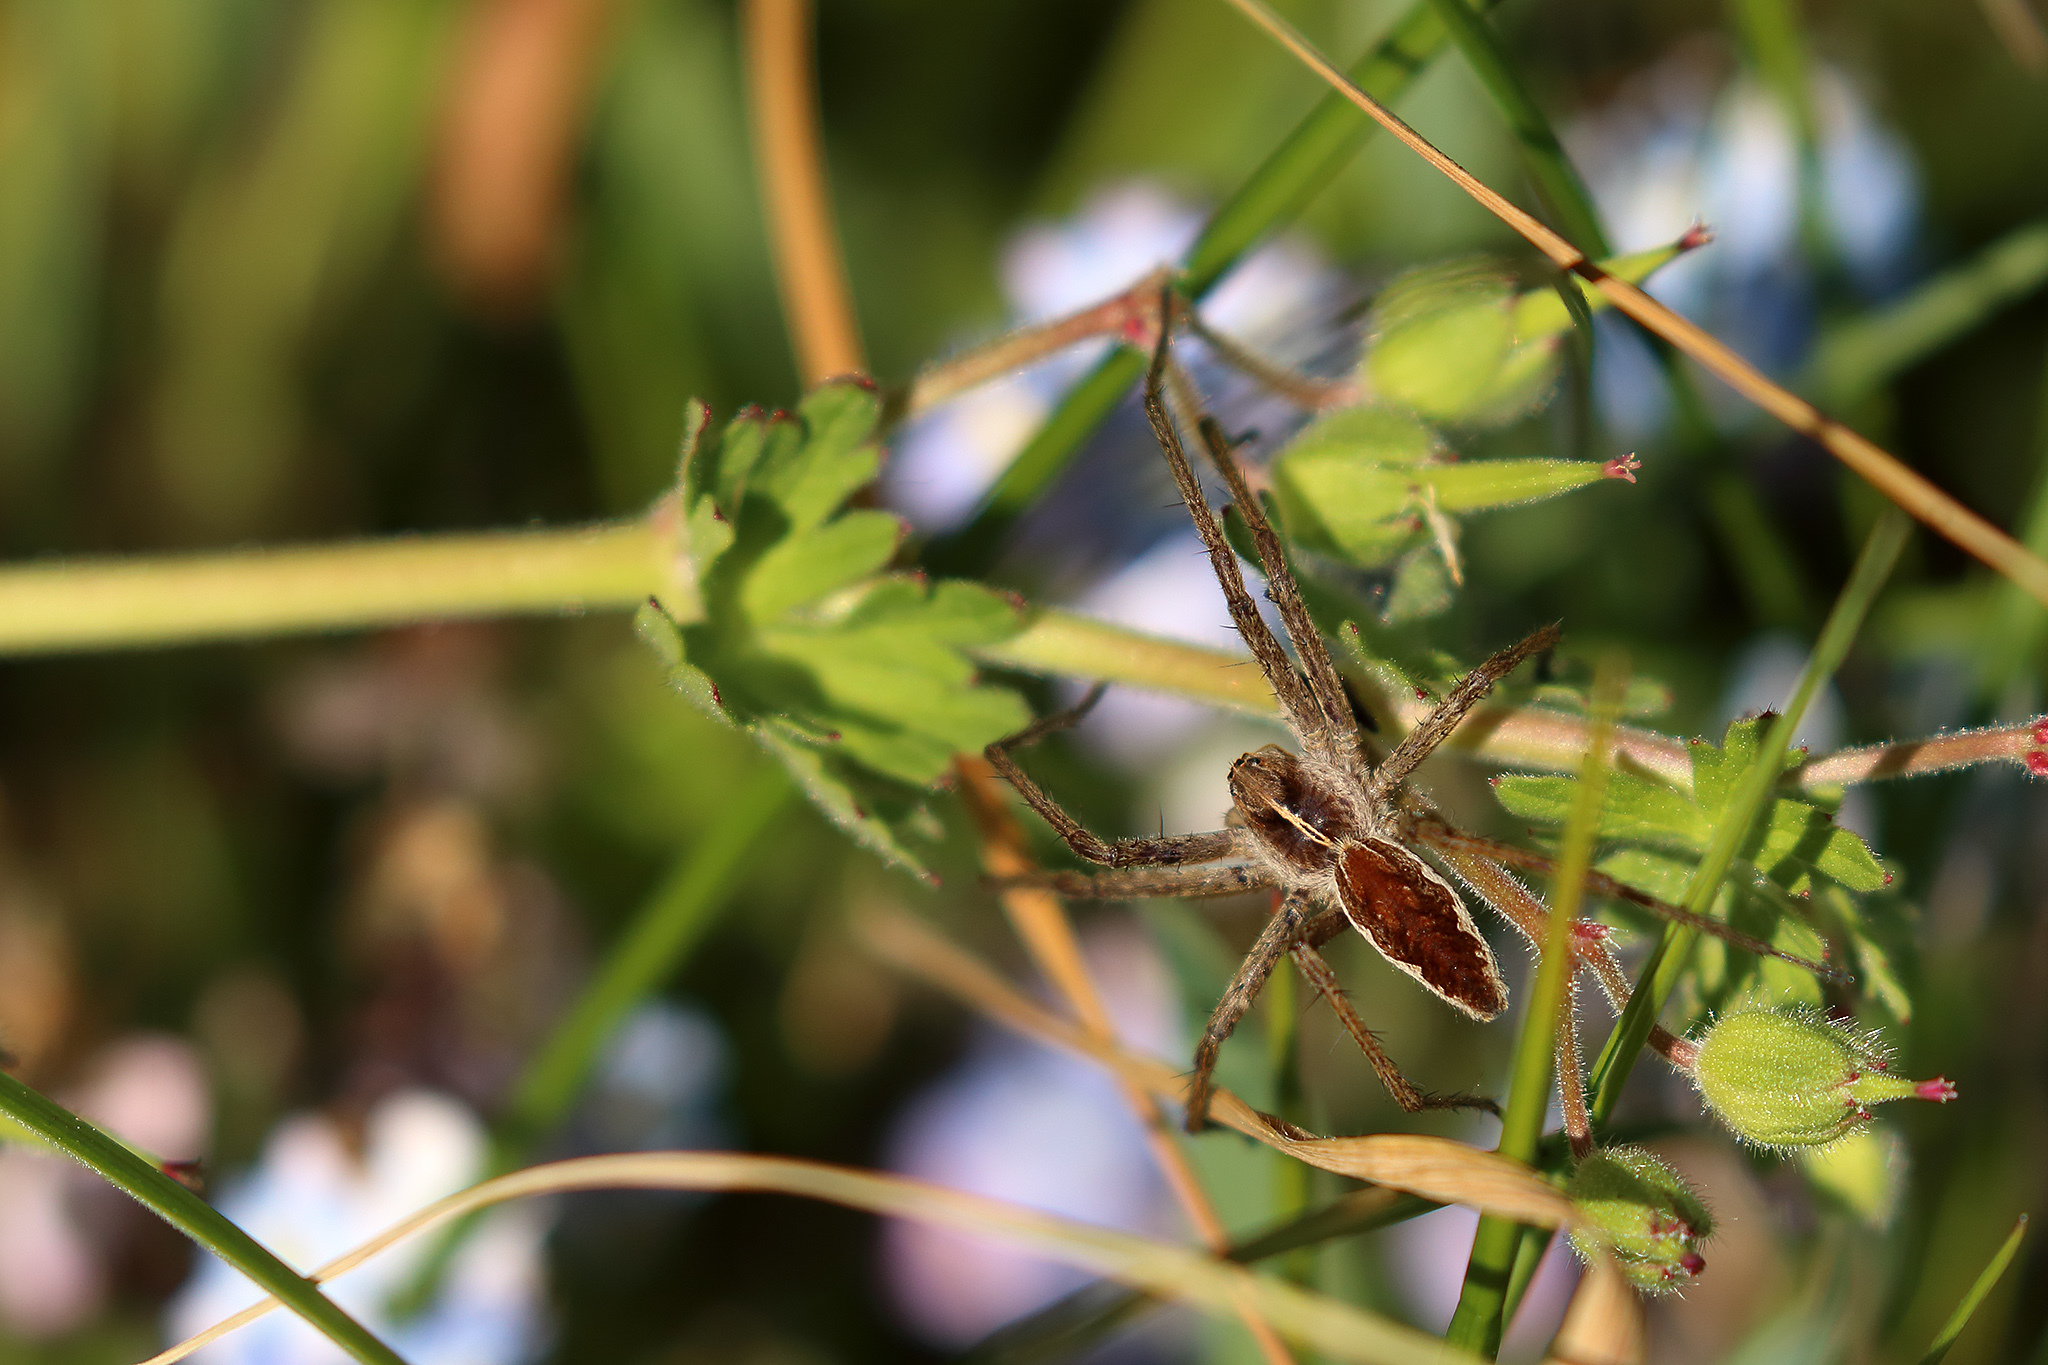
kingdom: Animalia
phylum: Arthropoda
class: Arachnida
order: Araneae
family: Pisauridae
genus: Pisaura
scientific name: Pisaura mirabilis
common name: Tent spider
